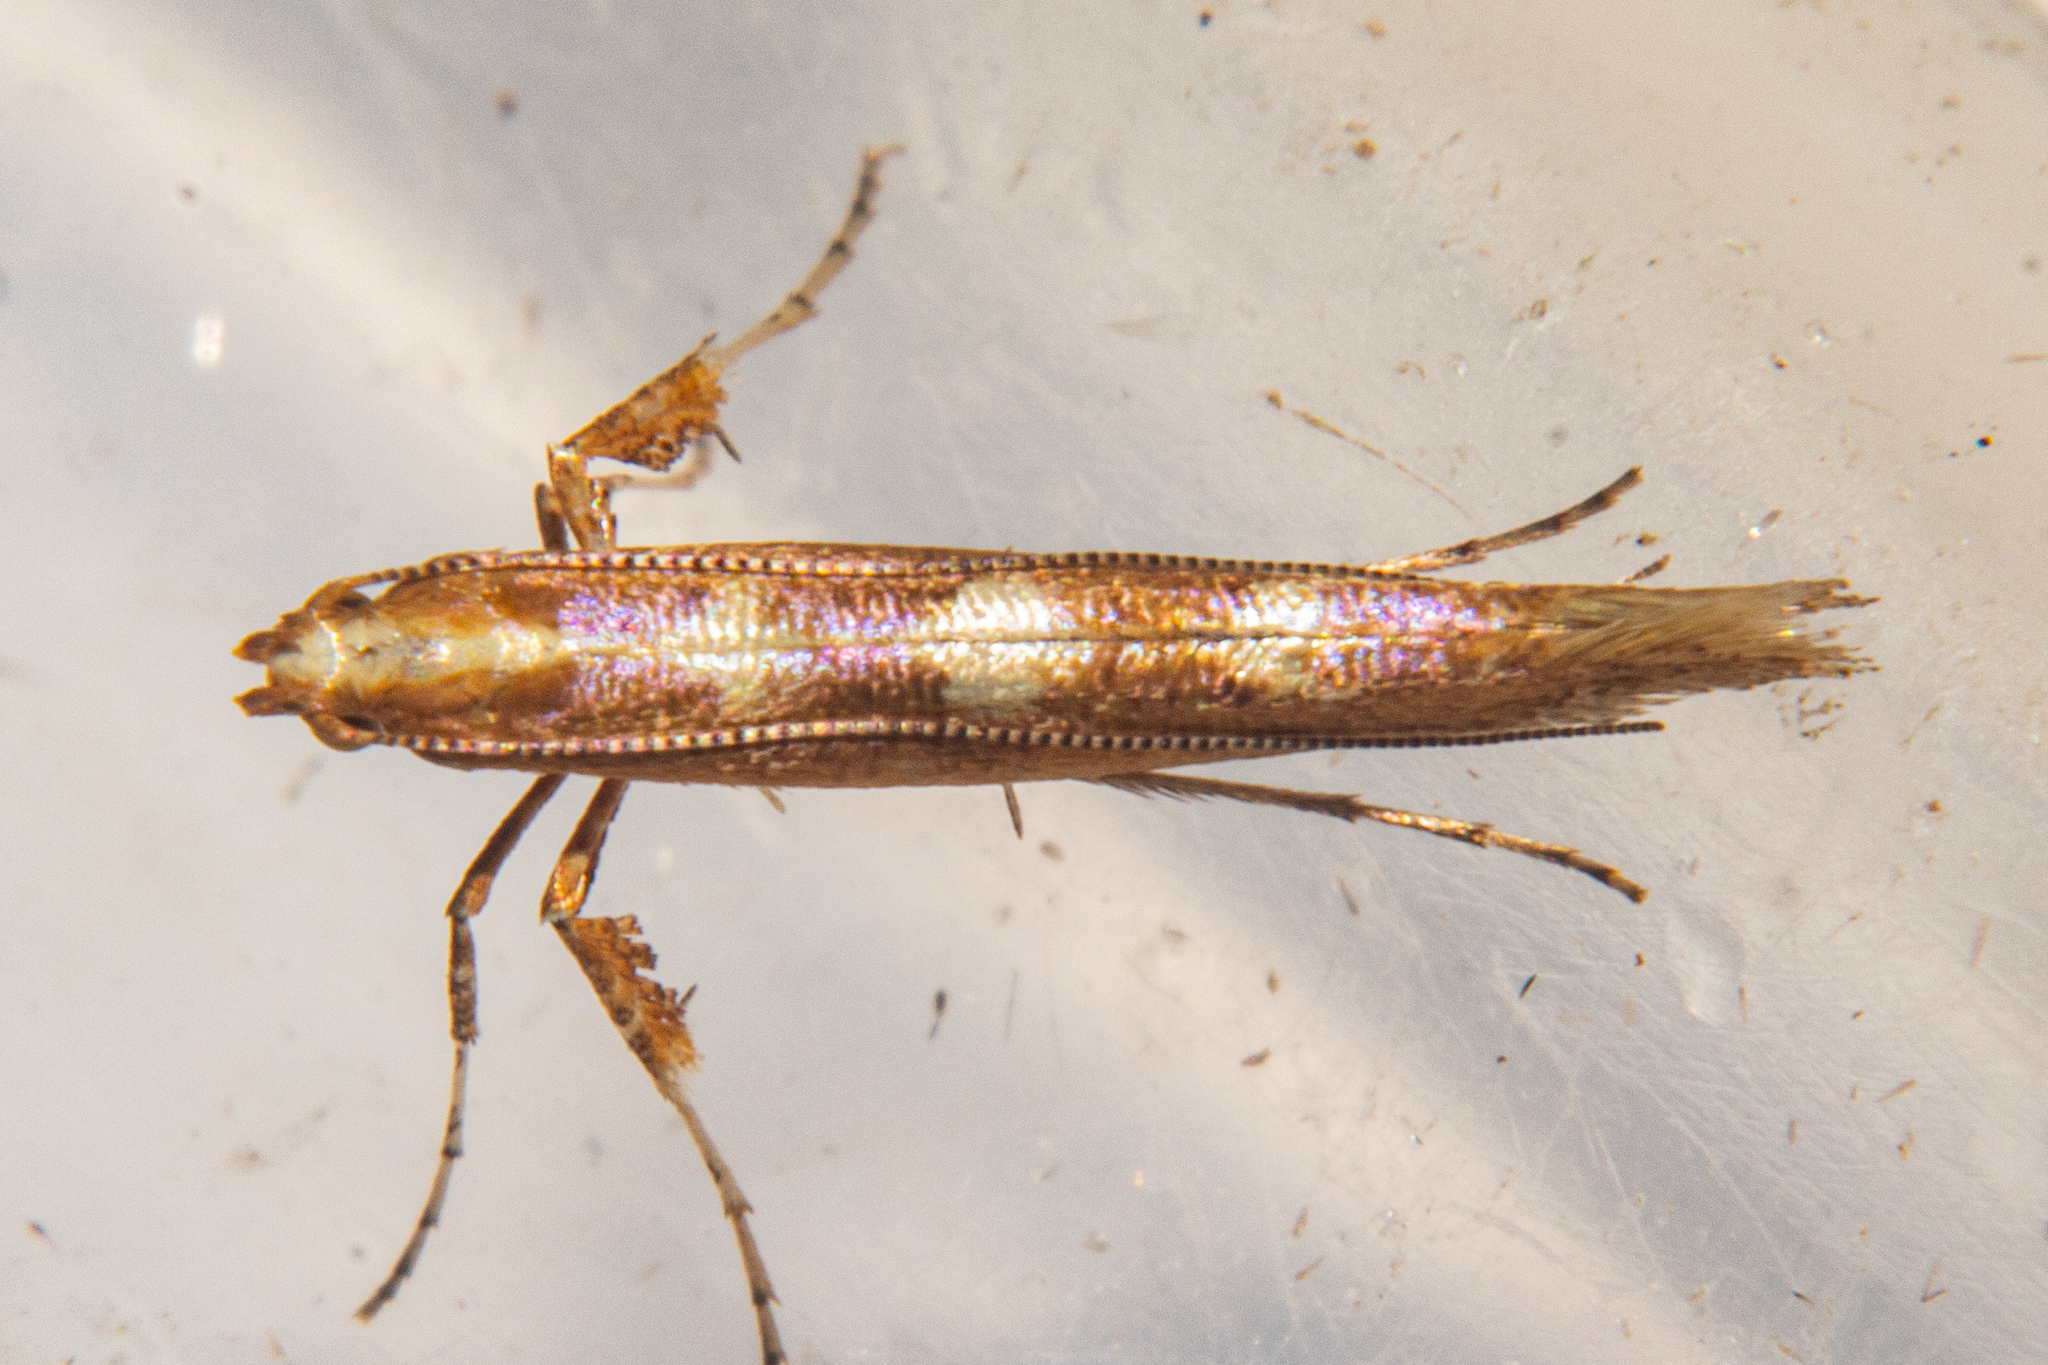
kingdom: Animalia
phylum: Arthropoda
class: Insecta
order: Lepidoptera
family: Gracillariidae
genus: Caloptilia
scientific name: Caloptilia selenitis
